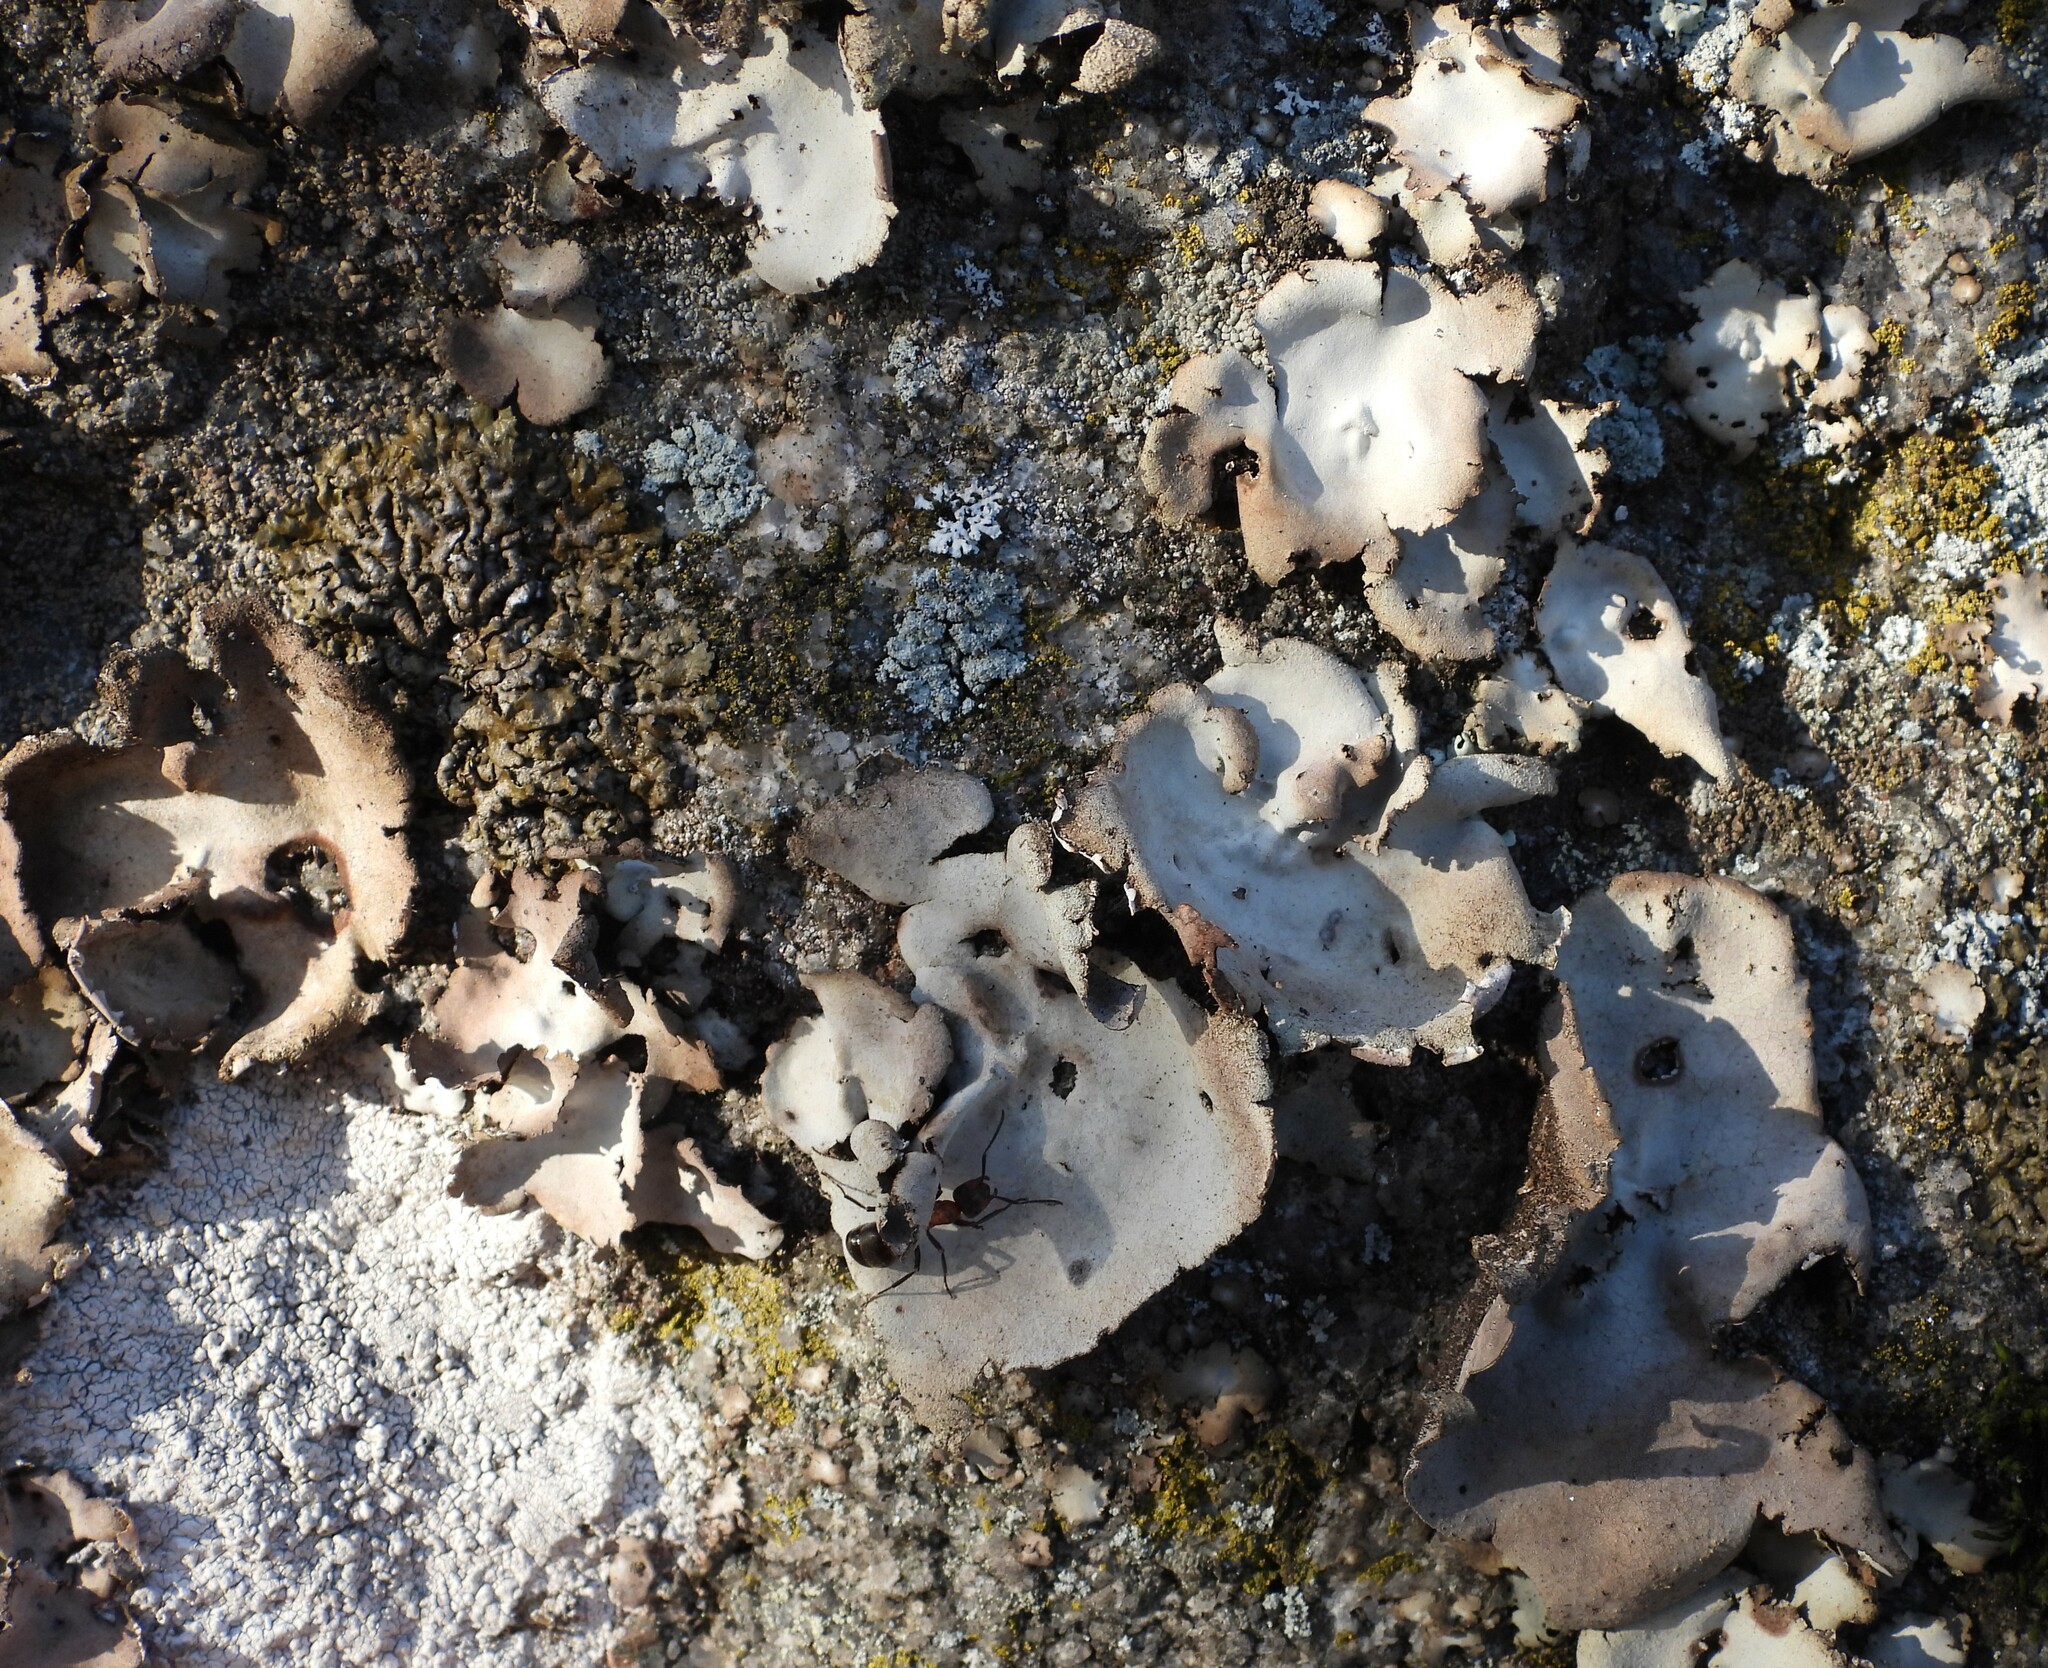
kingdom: Fungi
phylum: Ascomycota
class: Lecanoromycetes
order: Umbilicariales
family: Umbilicariaceae
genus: Umbilicaria
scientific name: Umbilicaria hirsuta
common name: Granulating rocktripe lichen
